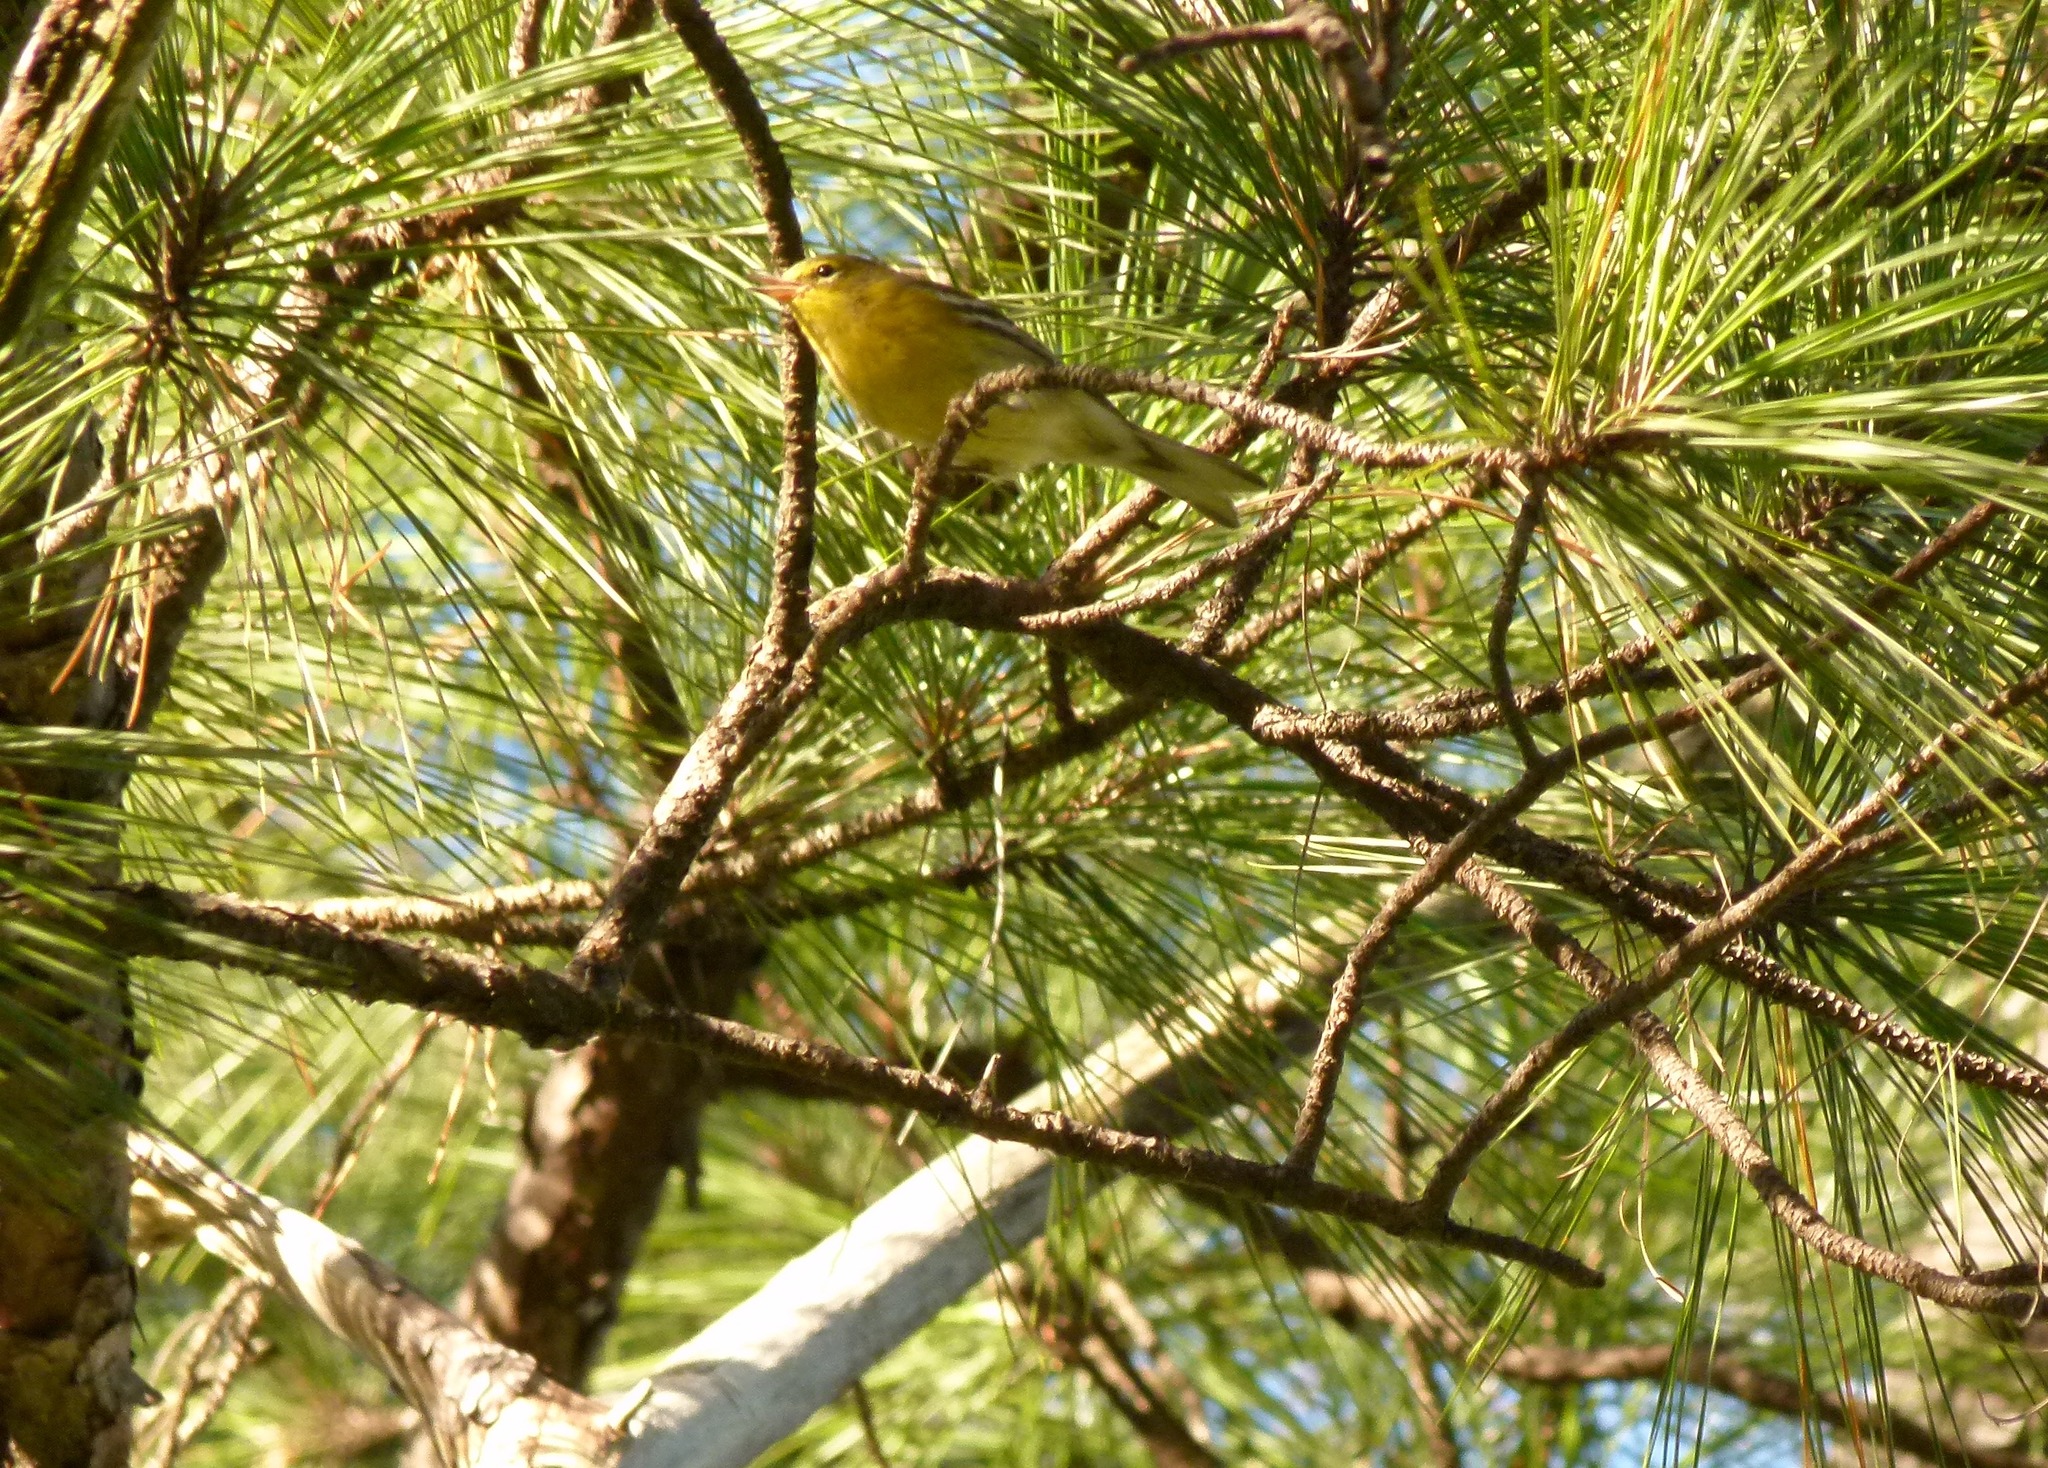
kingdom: Animalia
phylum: Chordata
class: Aves
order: Passeriformes
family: Parulidae
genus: Setophaga
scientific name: Setophaga pinus
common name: Pine warbler
